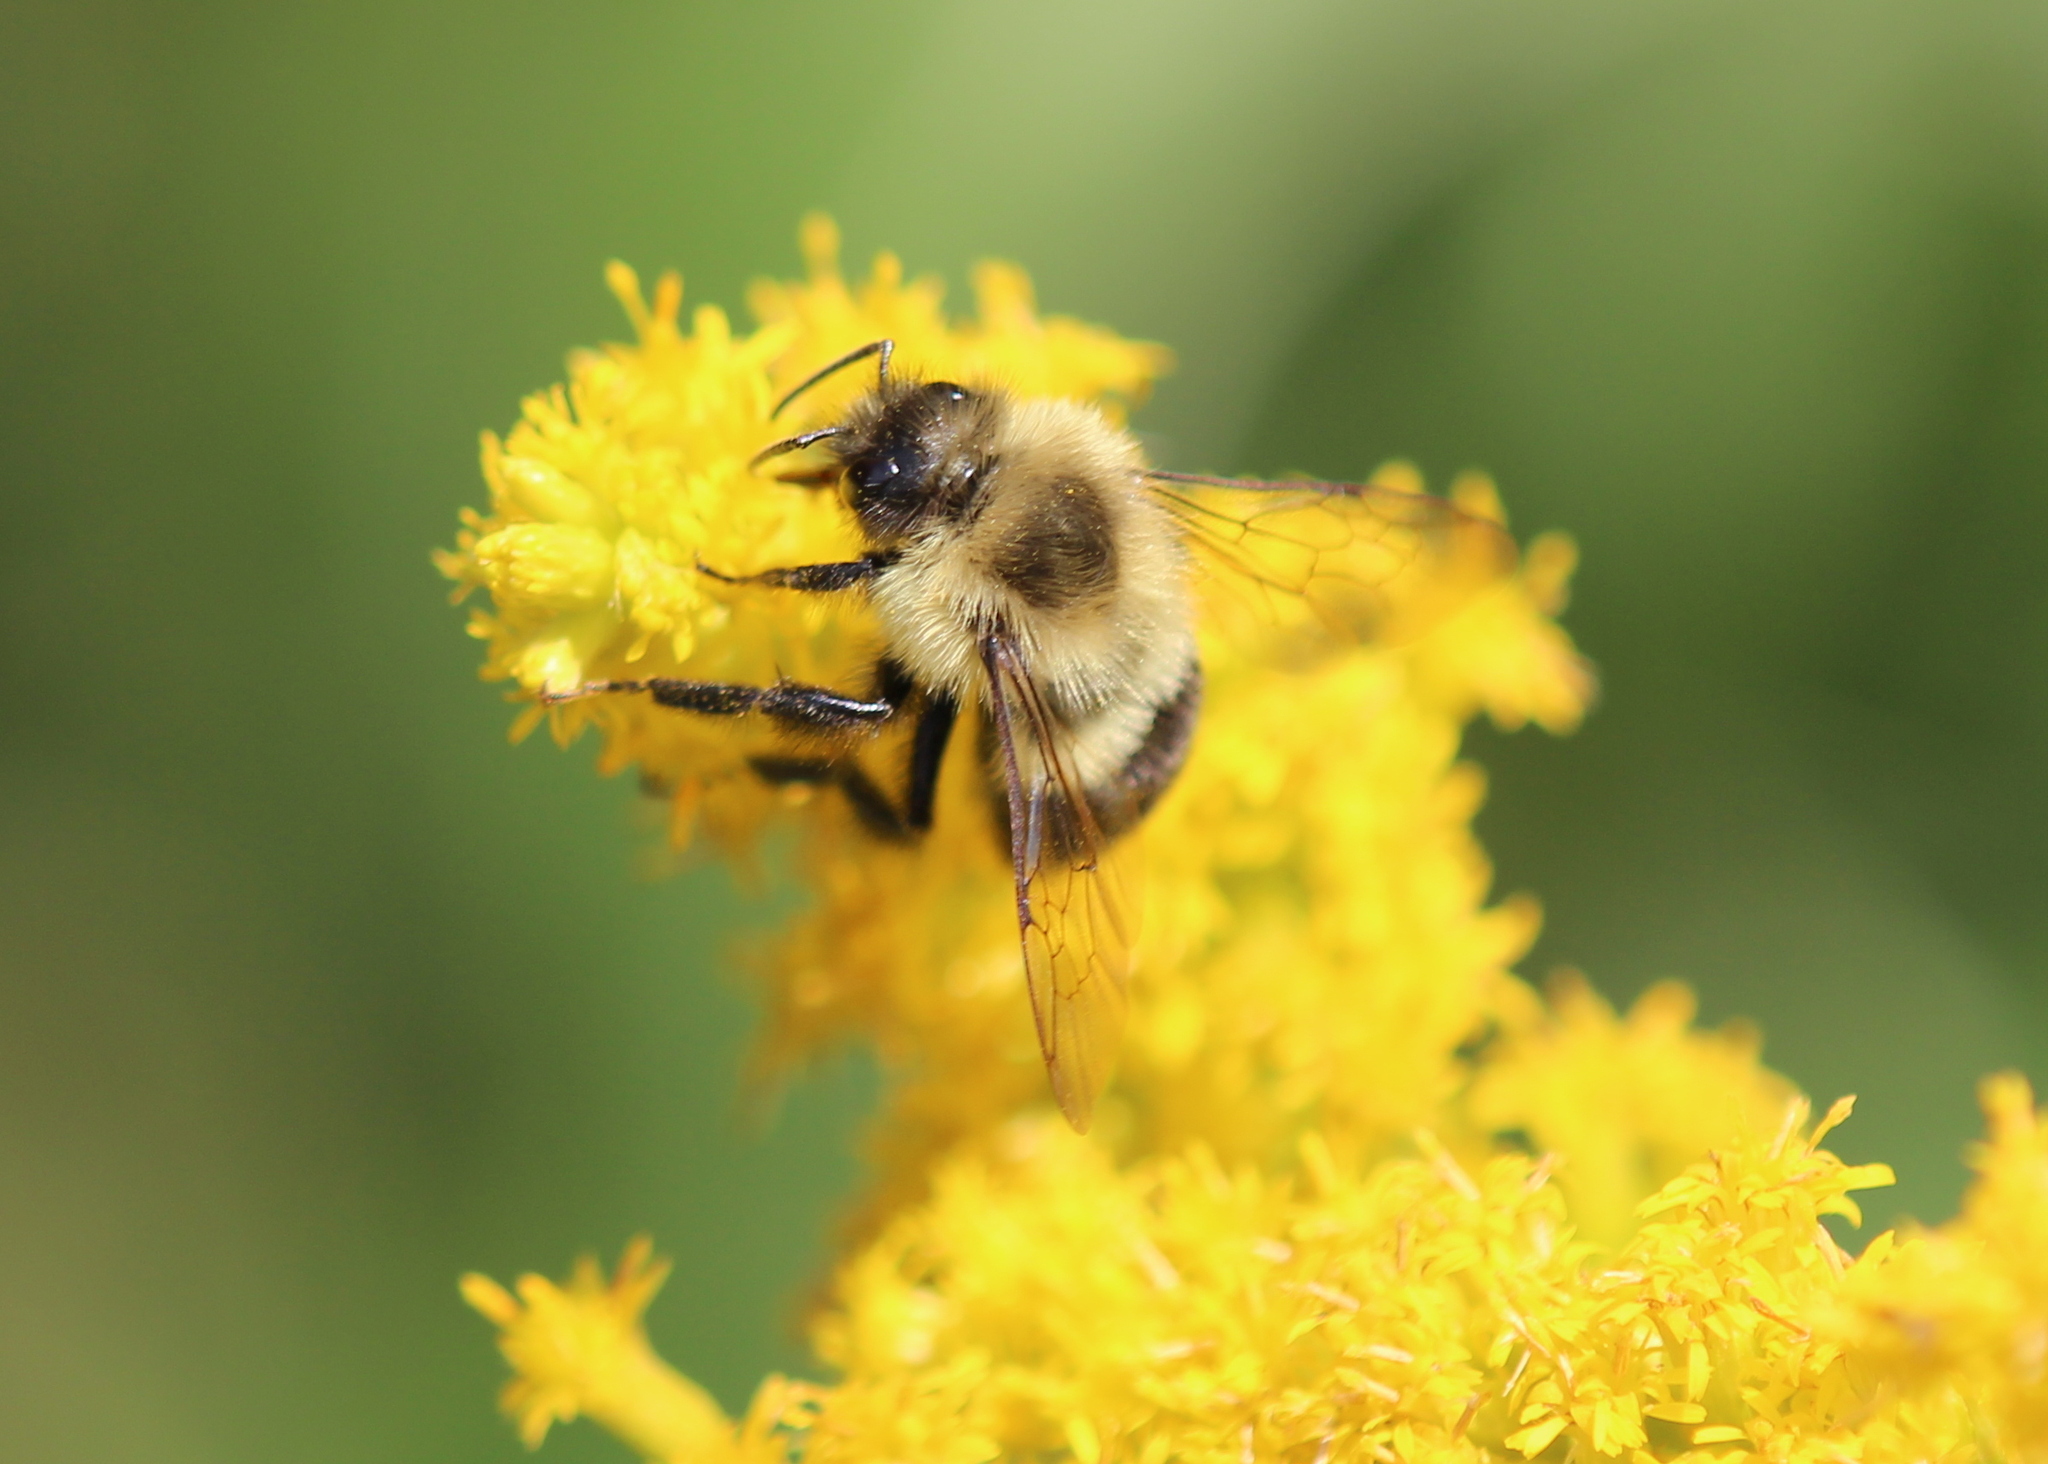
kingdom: Animalia
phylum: Arthropoda
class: Insecta
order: Hymenoptera
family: Apidae
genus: Bombus
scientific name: Bombus impatiens
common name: Common eastern bumble bee
